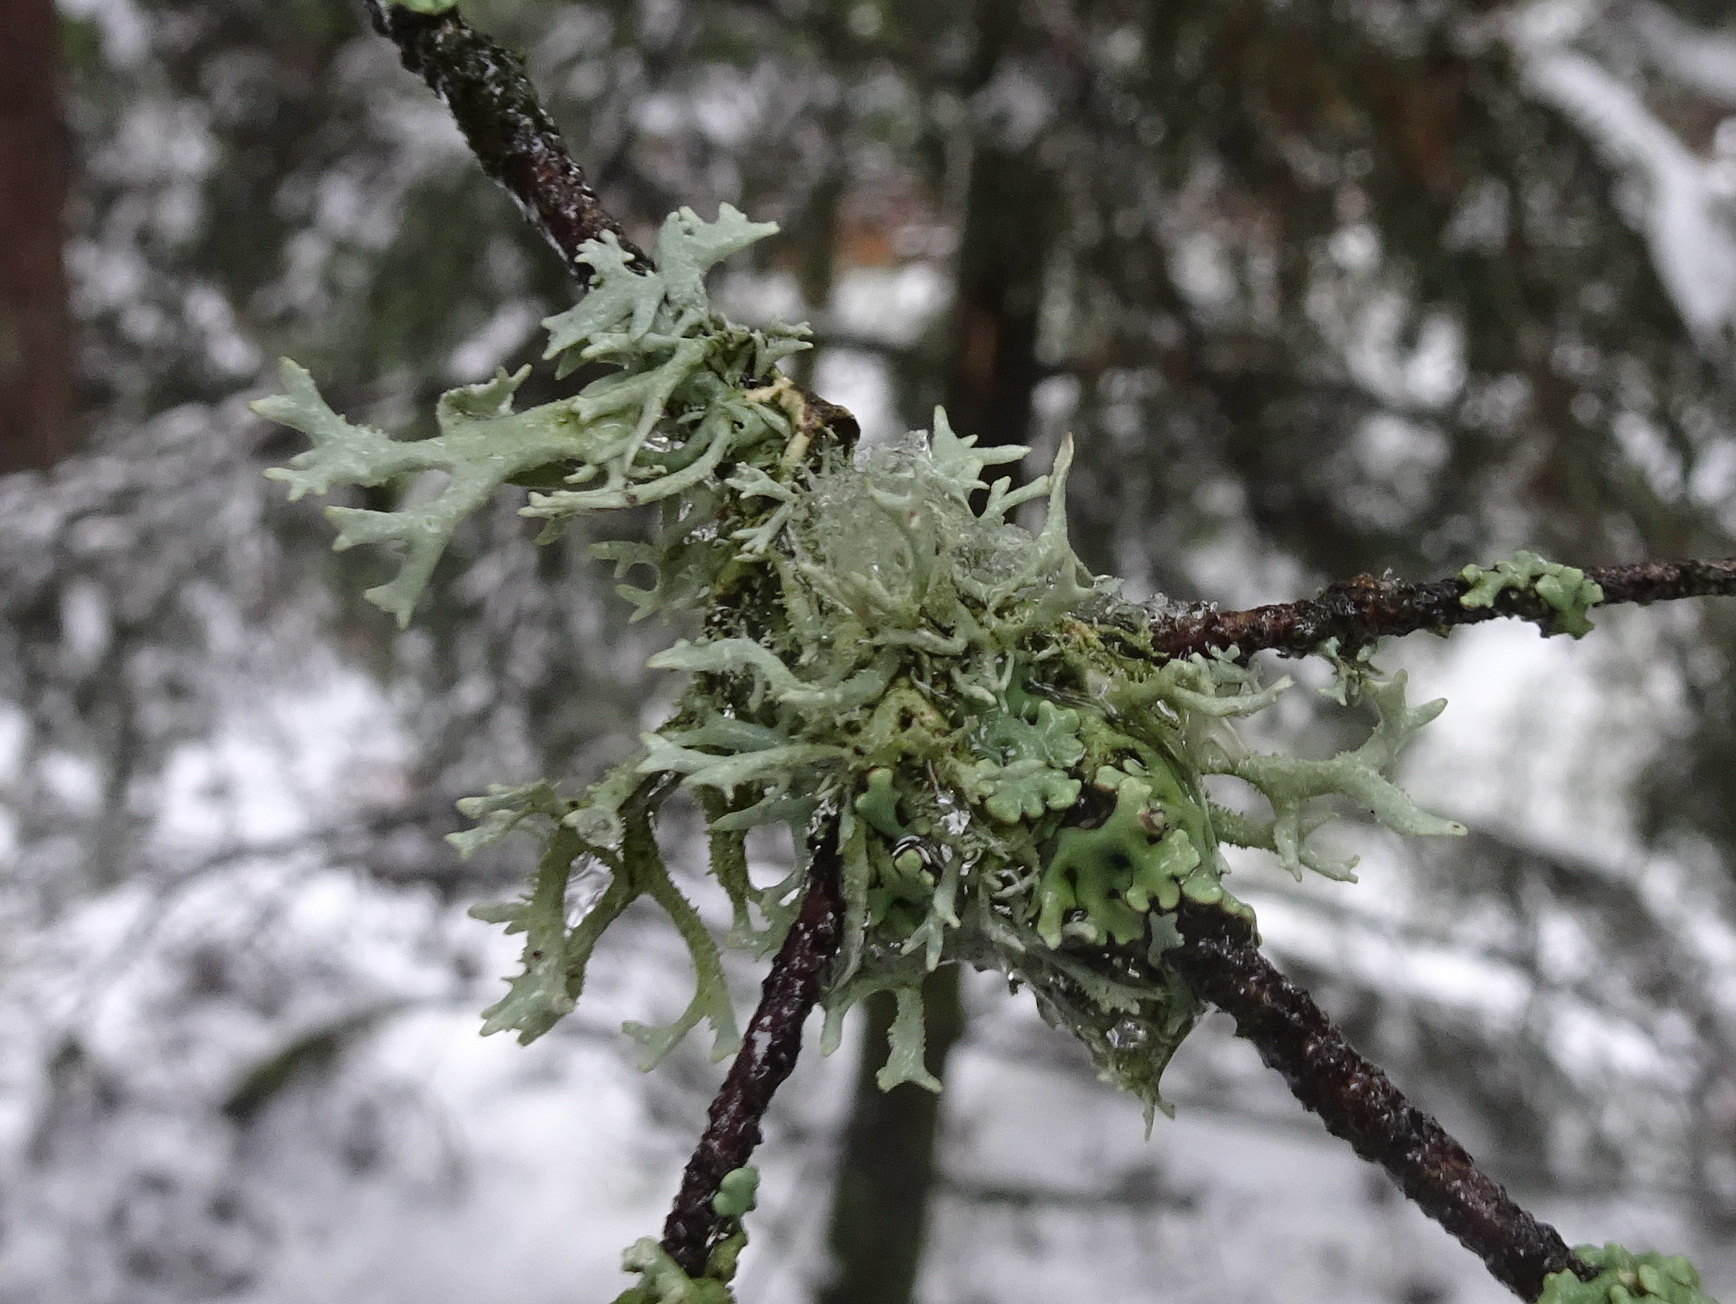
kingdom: Fungi
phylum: Ascomycota
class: Lecanoromycetes
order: Lecanorales
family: Parmeliaceae
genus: Pseudevernia
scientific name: Pseudevernia furfuracea
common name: Tree moss
